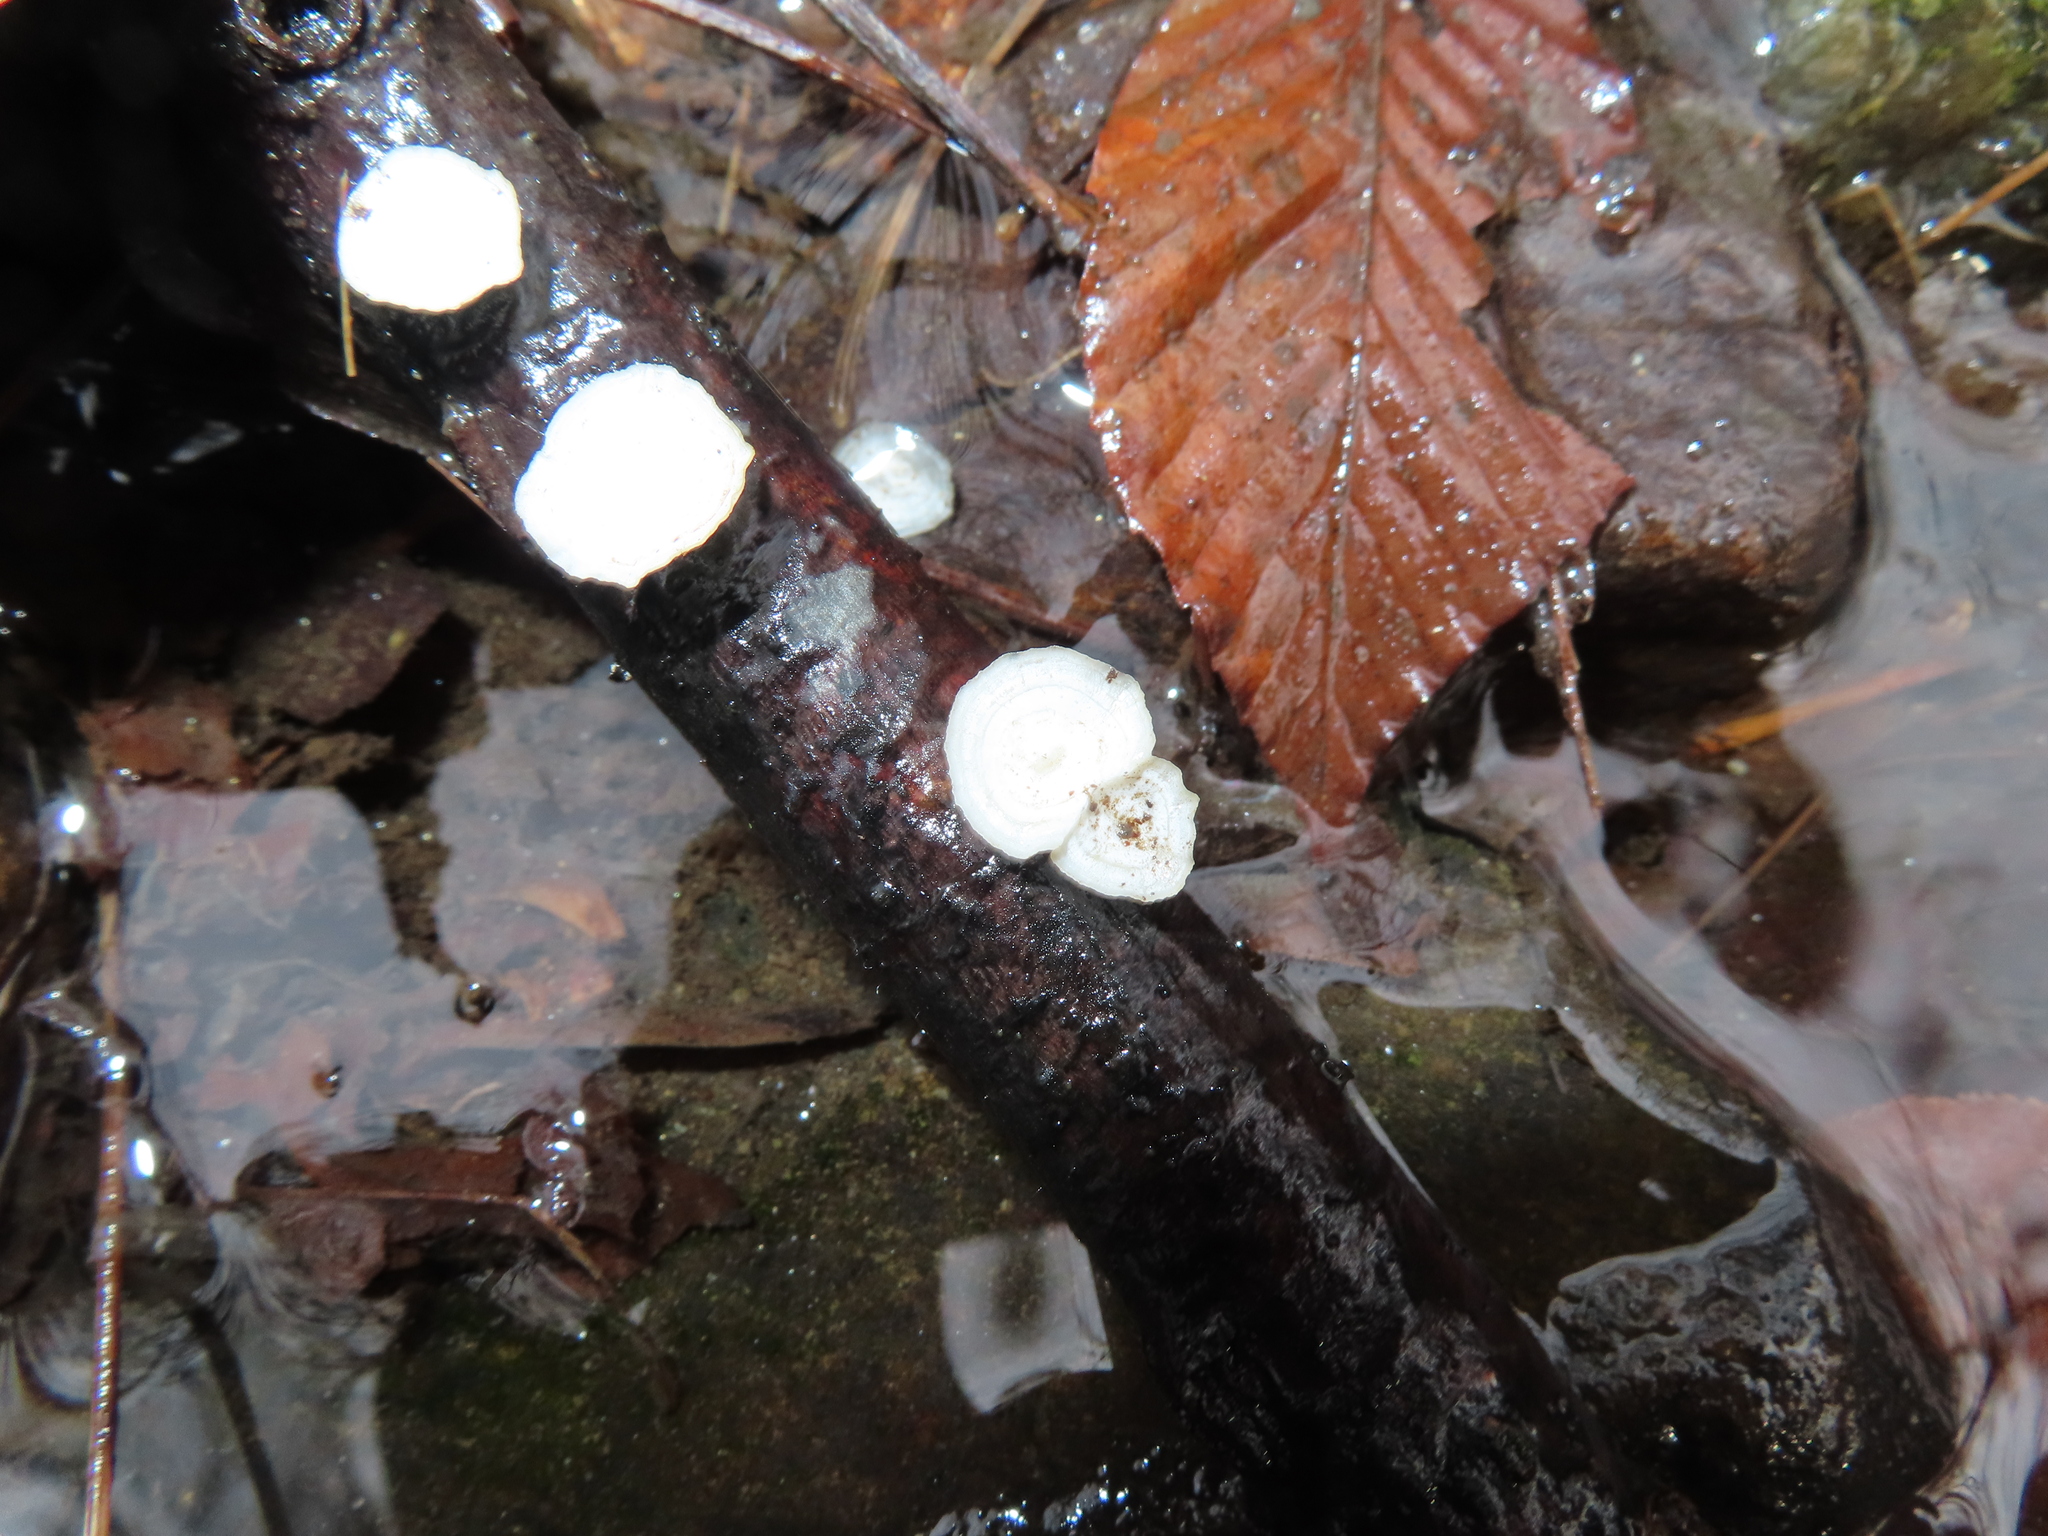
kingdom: Fungi
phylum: Basidiomycota
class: Agaricomycetes
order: Polyporales
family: Polyporaceae
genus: Poronidulus
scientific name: Poronidulus conchifer
